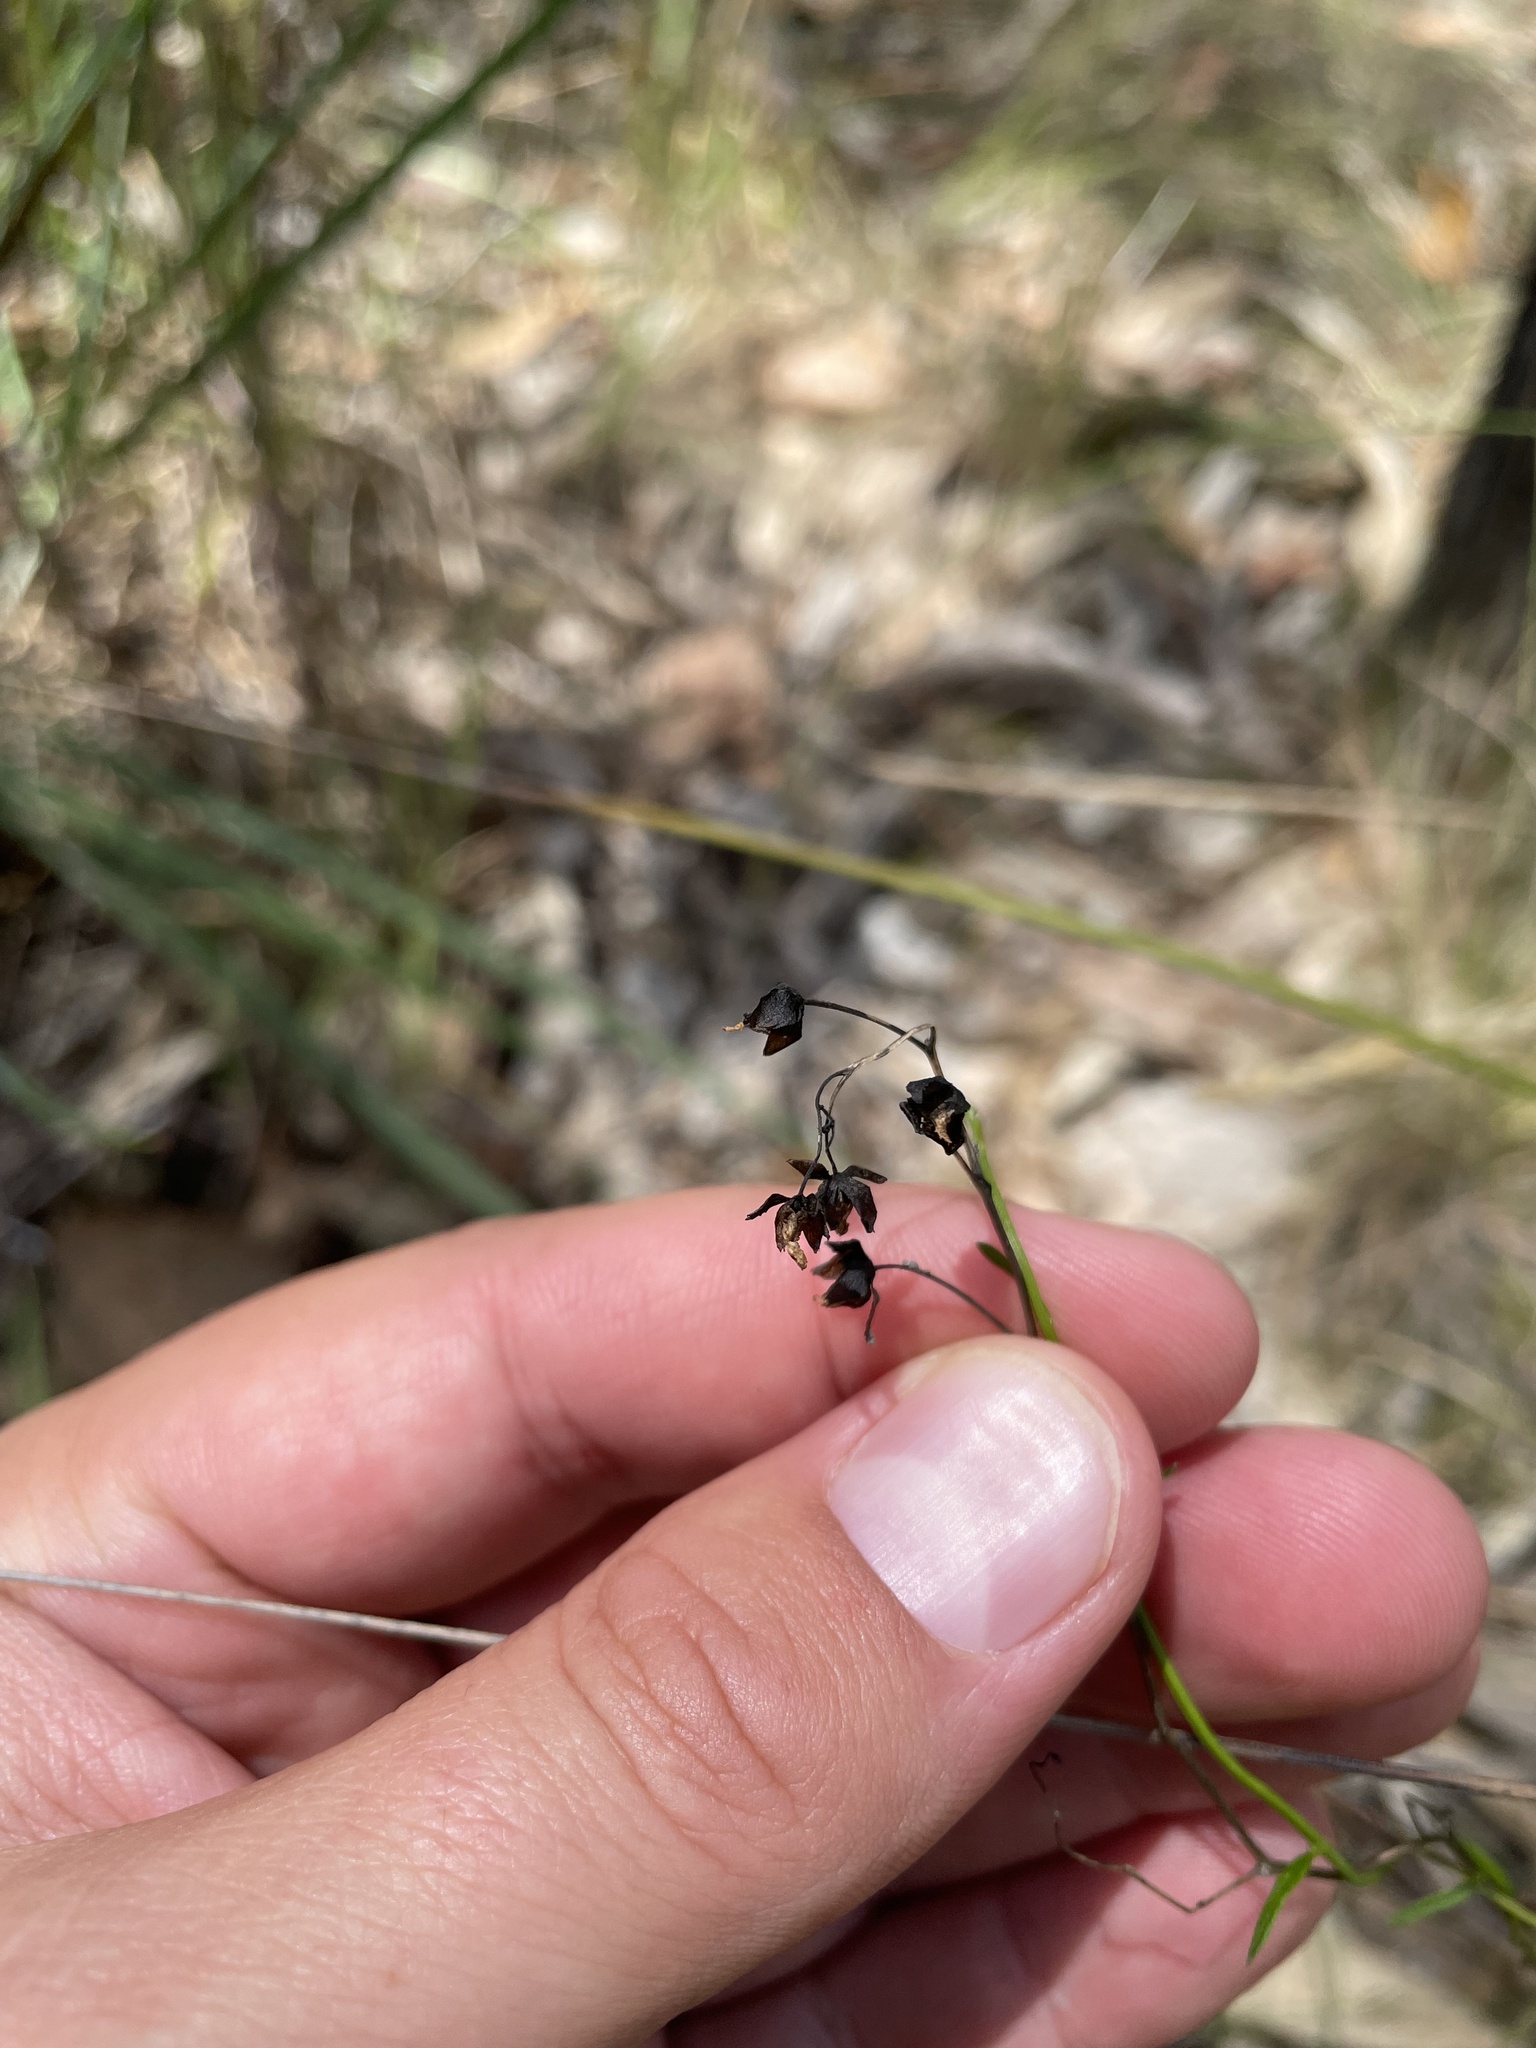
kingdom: Plantae
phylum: Tracheophyta
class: Magnoliopsida
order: Caryophyllales
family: Droseraceae
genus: Drosera
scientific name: Drosera peltata
